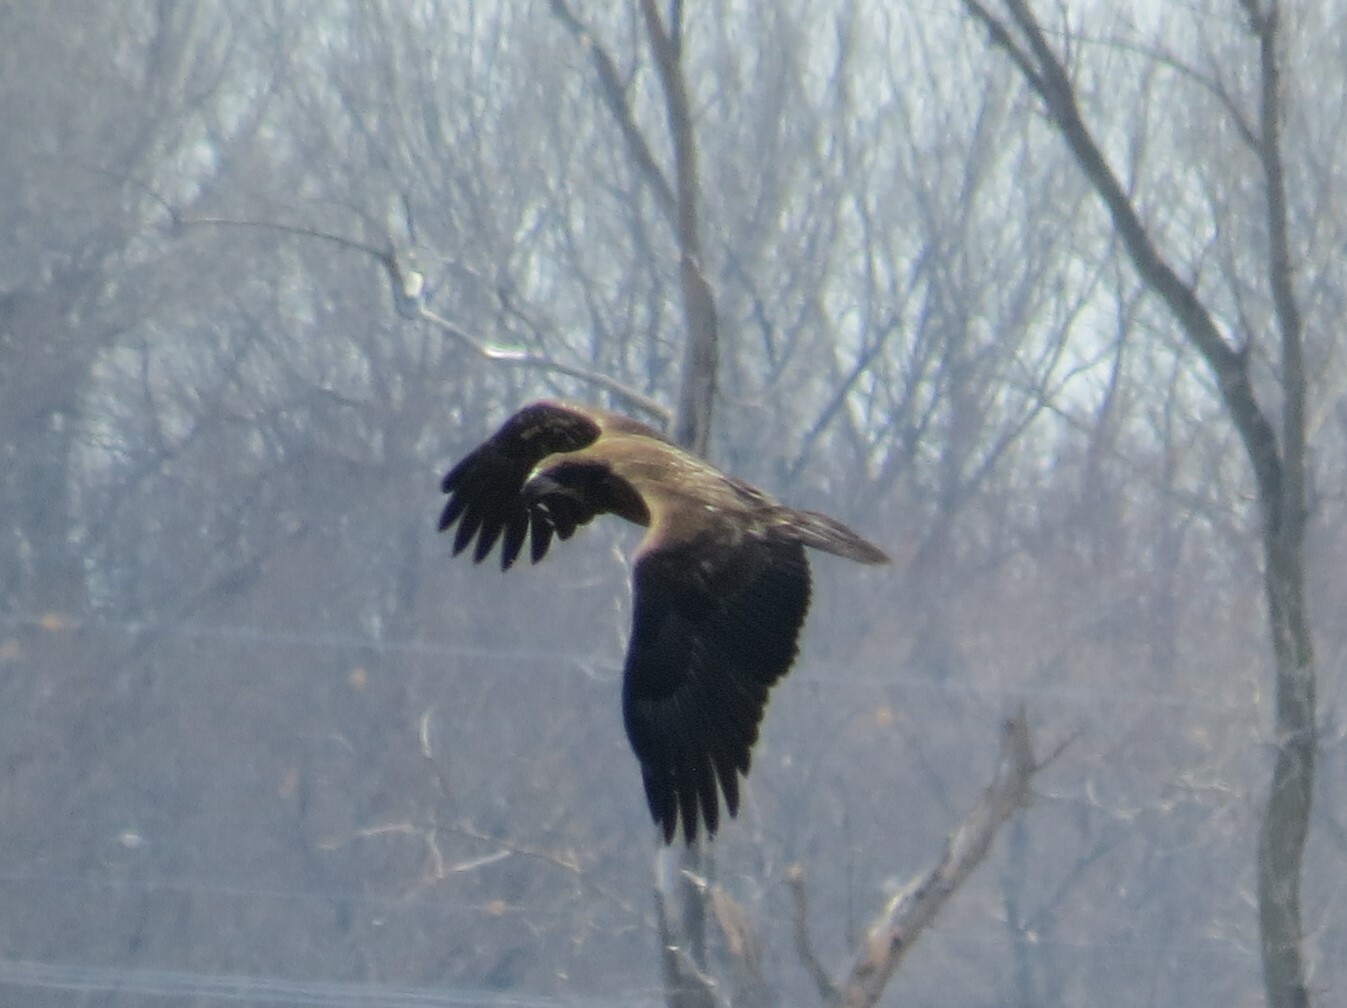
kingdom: Animalia
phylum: Chordata
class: Aves
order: Accipitriformes
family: Accipitridae
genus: Haliaeetus
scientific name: Haliaeetus leucocephalus
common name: Bald eagle
